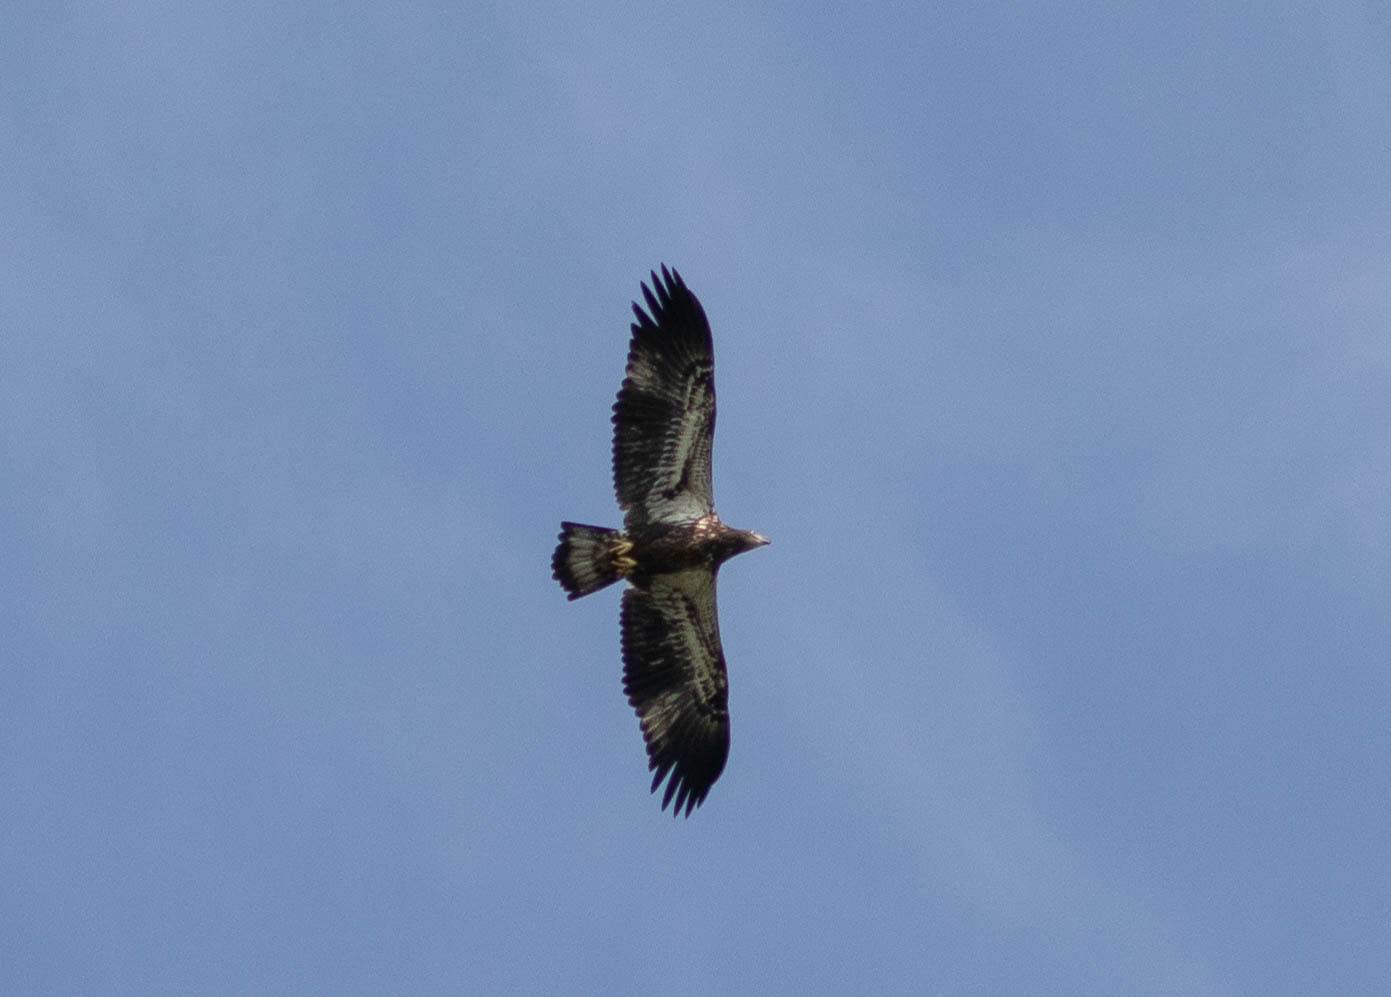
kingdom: Animalia
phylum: Chordata
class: Aves
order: Accipitriformes
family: Accipitridae
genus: Haliaeetus
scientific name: Haliaeetus leucocephalus
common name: Bald eagle
